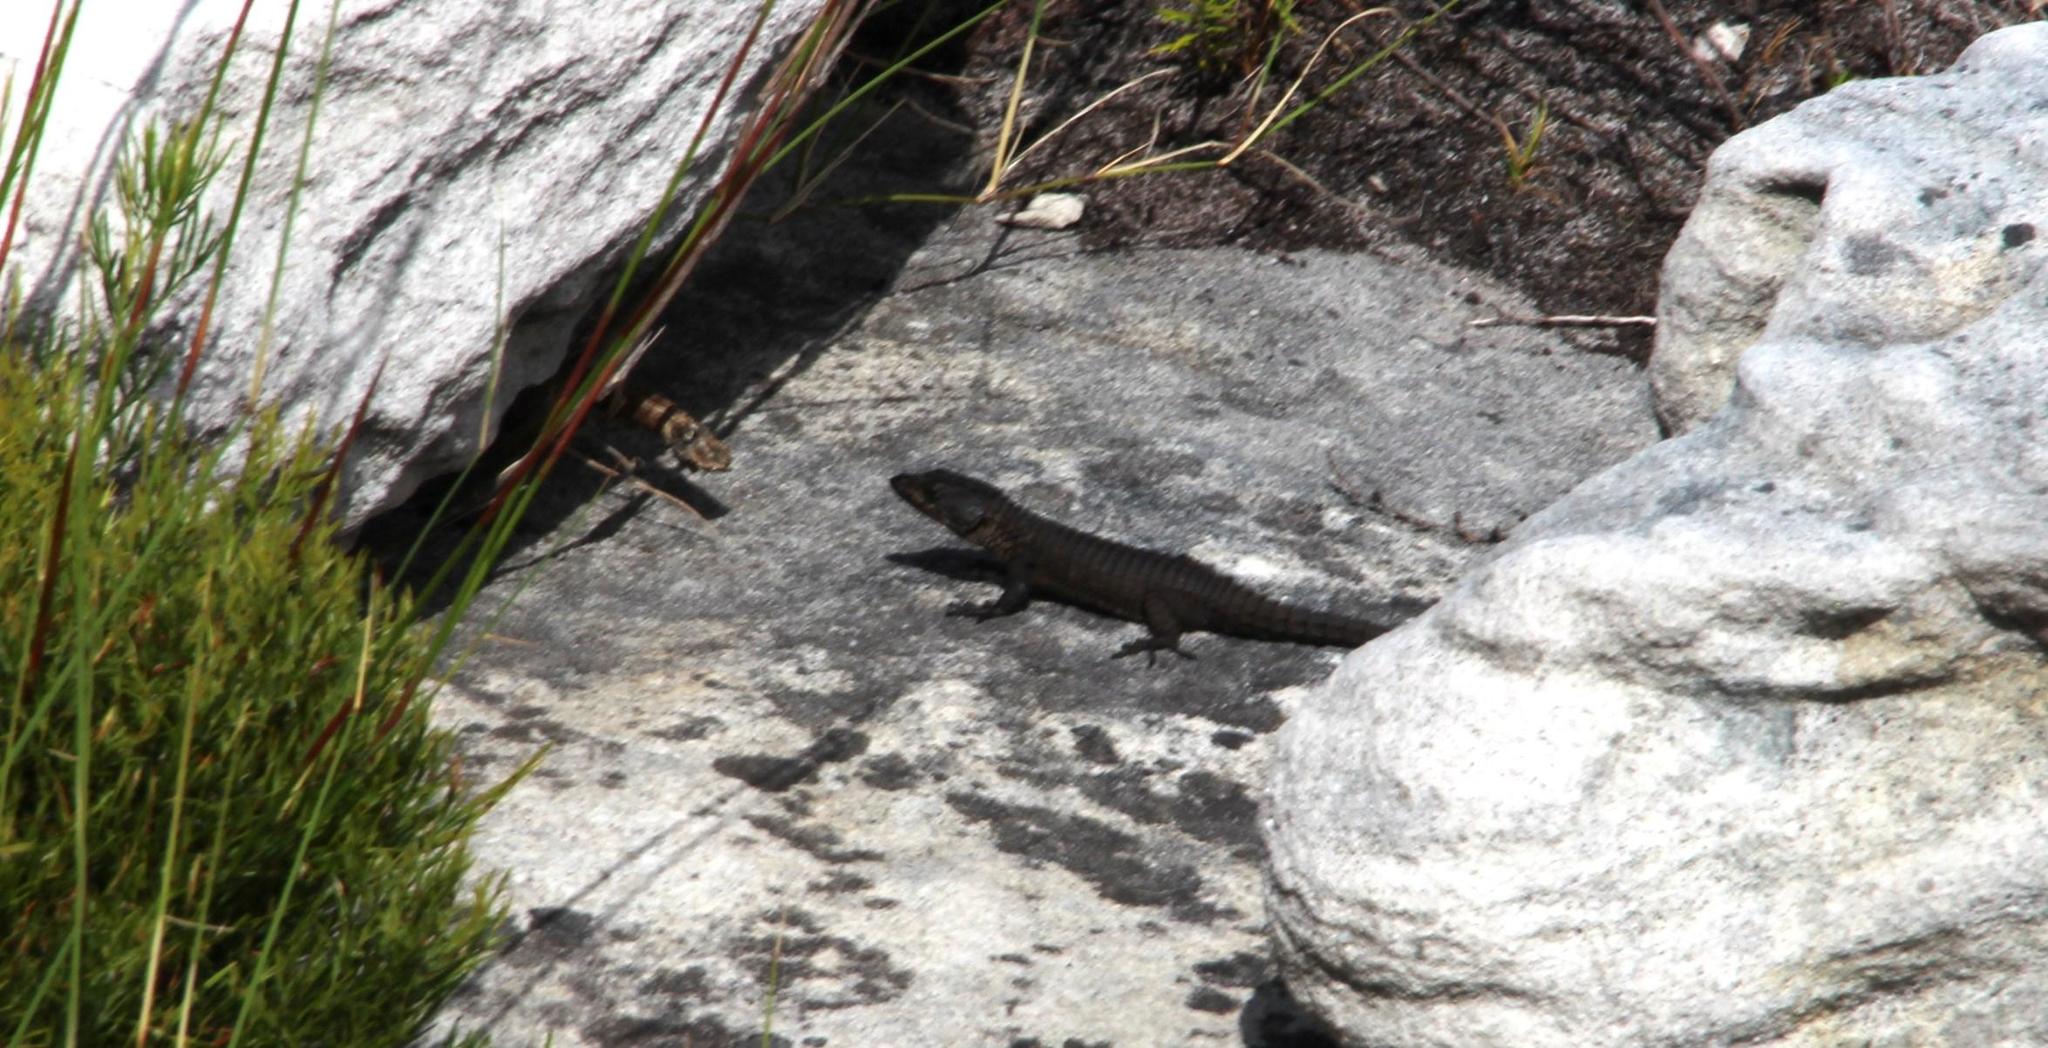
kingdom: Animalia
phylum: Chordata
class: Squamata
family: Cordylidae
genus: Cordylus
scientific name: Cordylus niger
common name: Black girdled lizard
